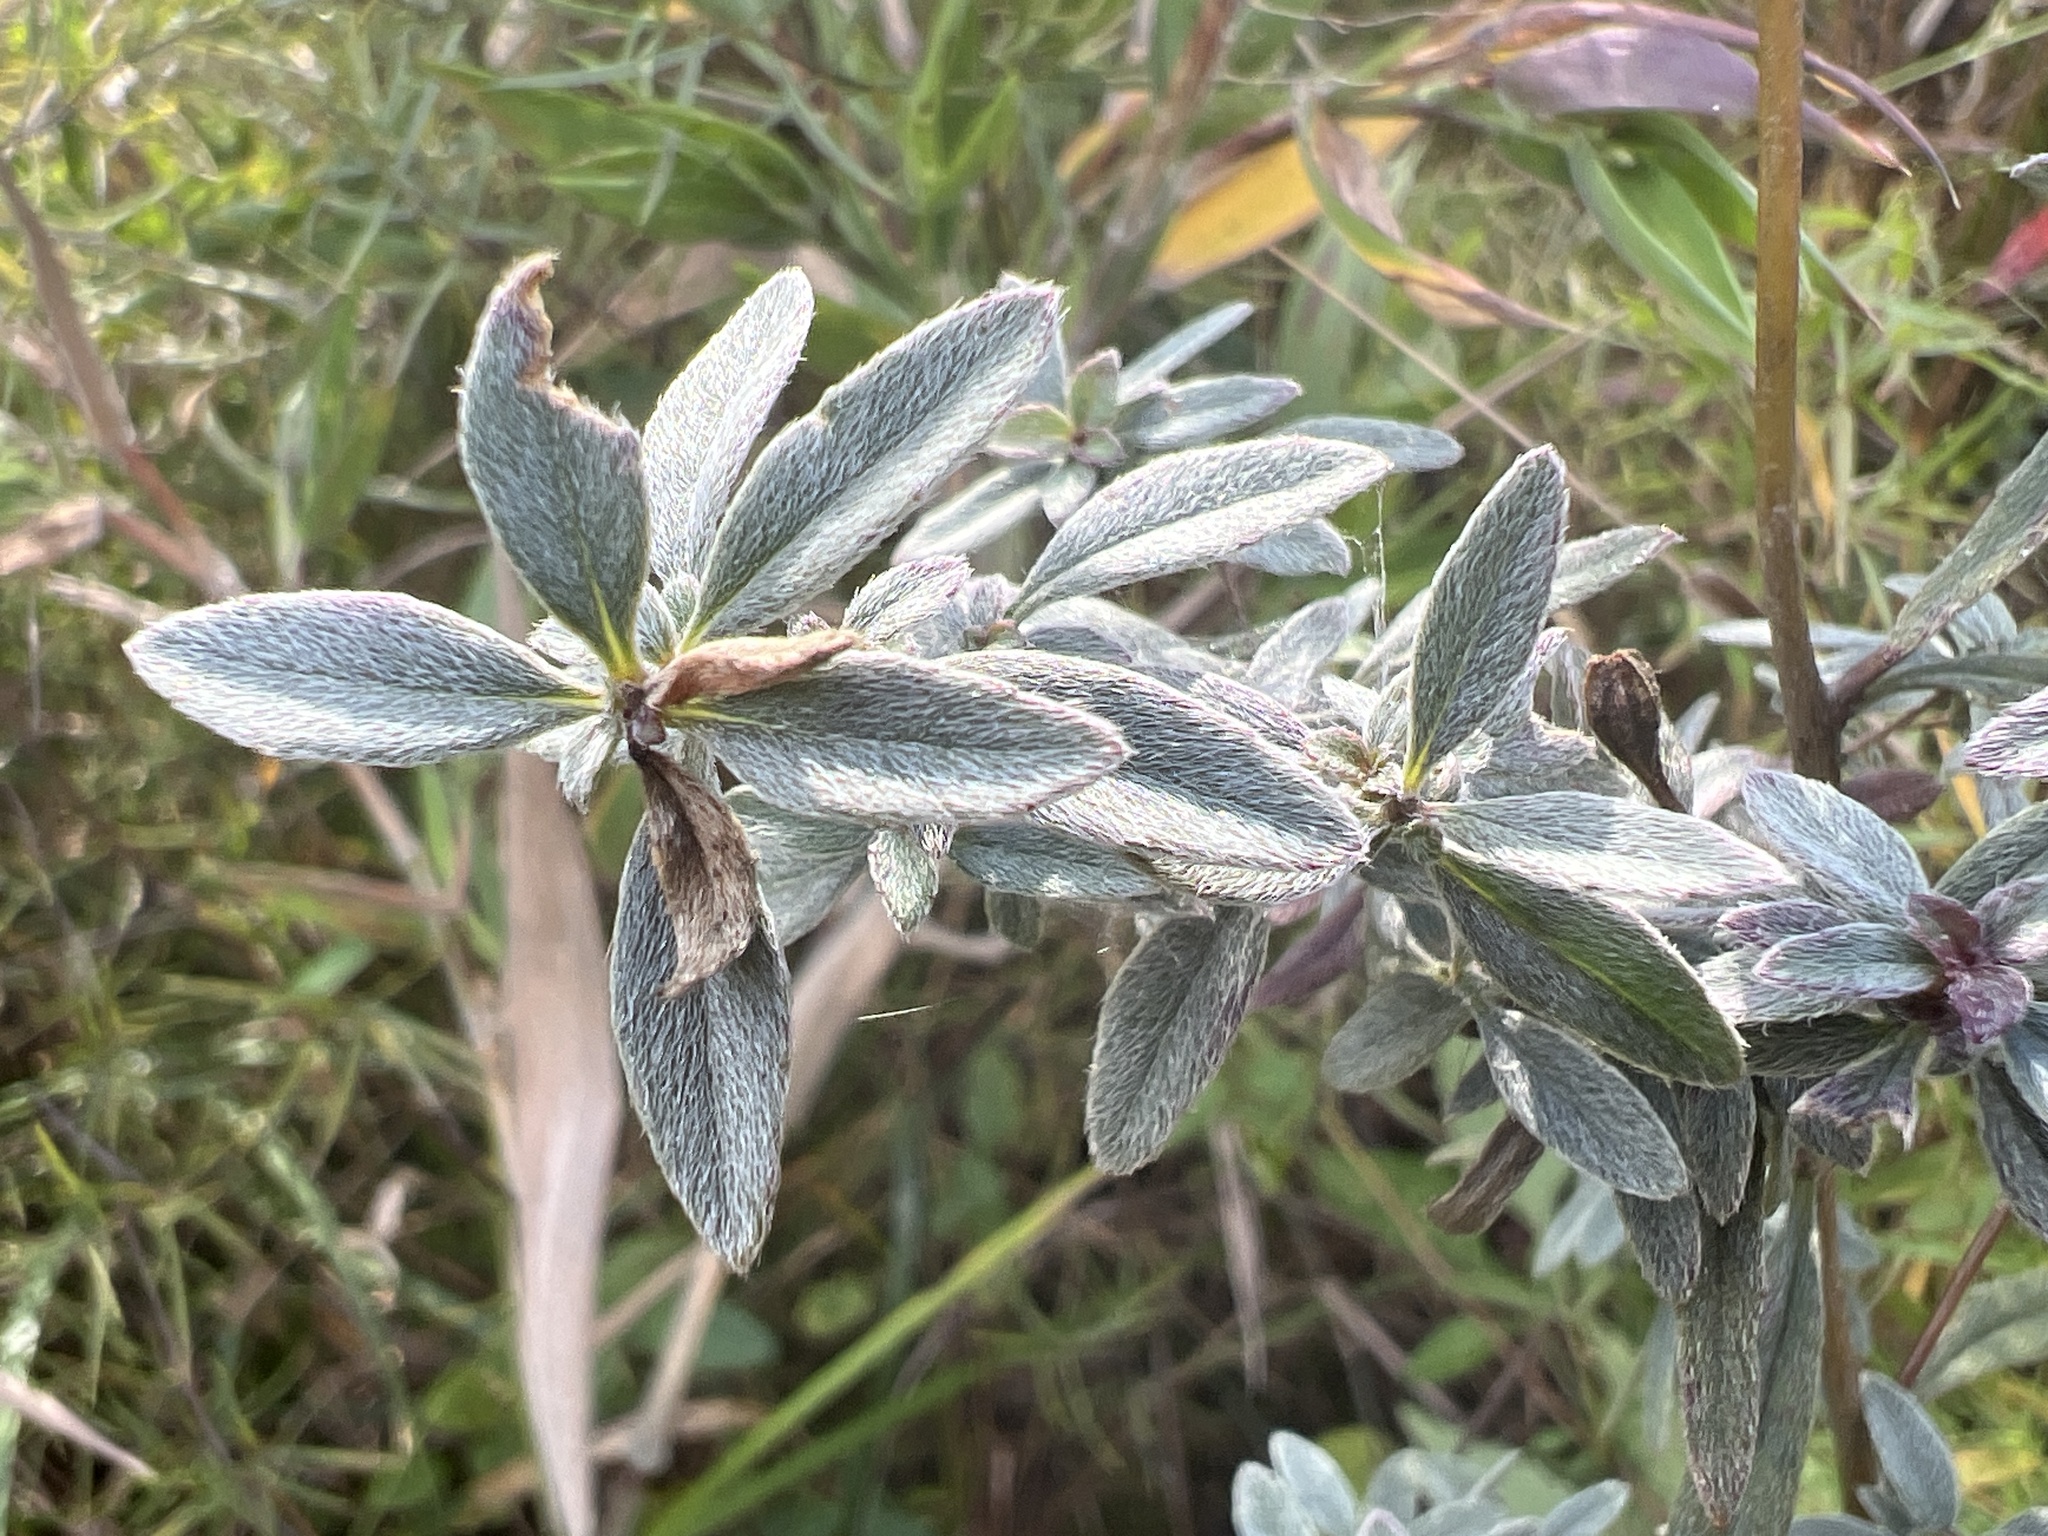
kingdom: Plantae
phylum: Tracheophyta
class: Magnoliopsida
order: Myrtales
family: Onagraceae
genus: Oenothera
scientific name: Oenothera fruticosa
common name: Southern sundrops
